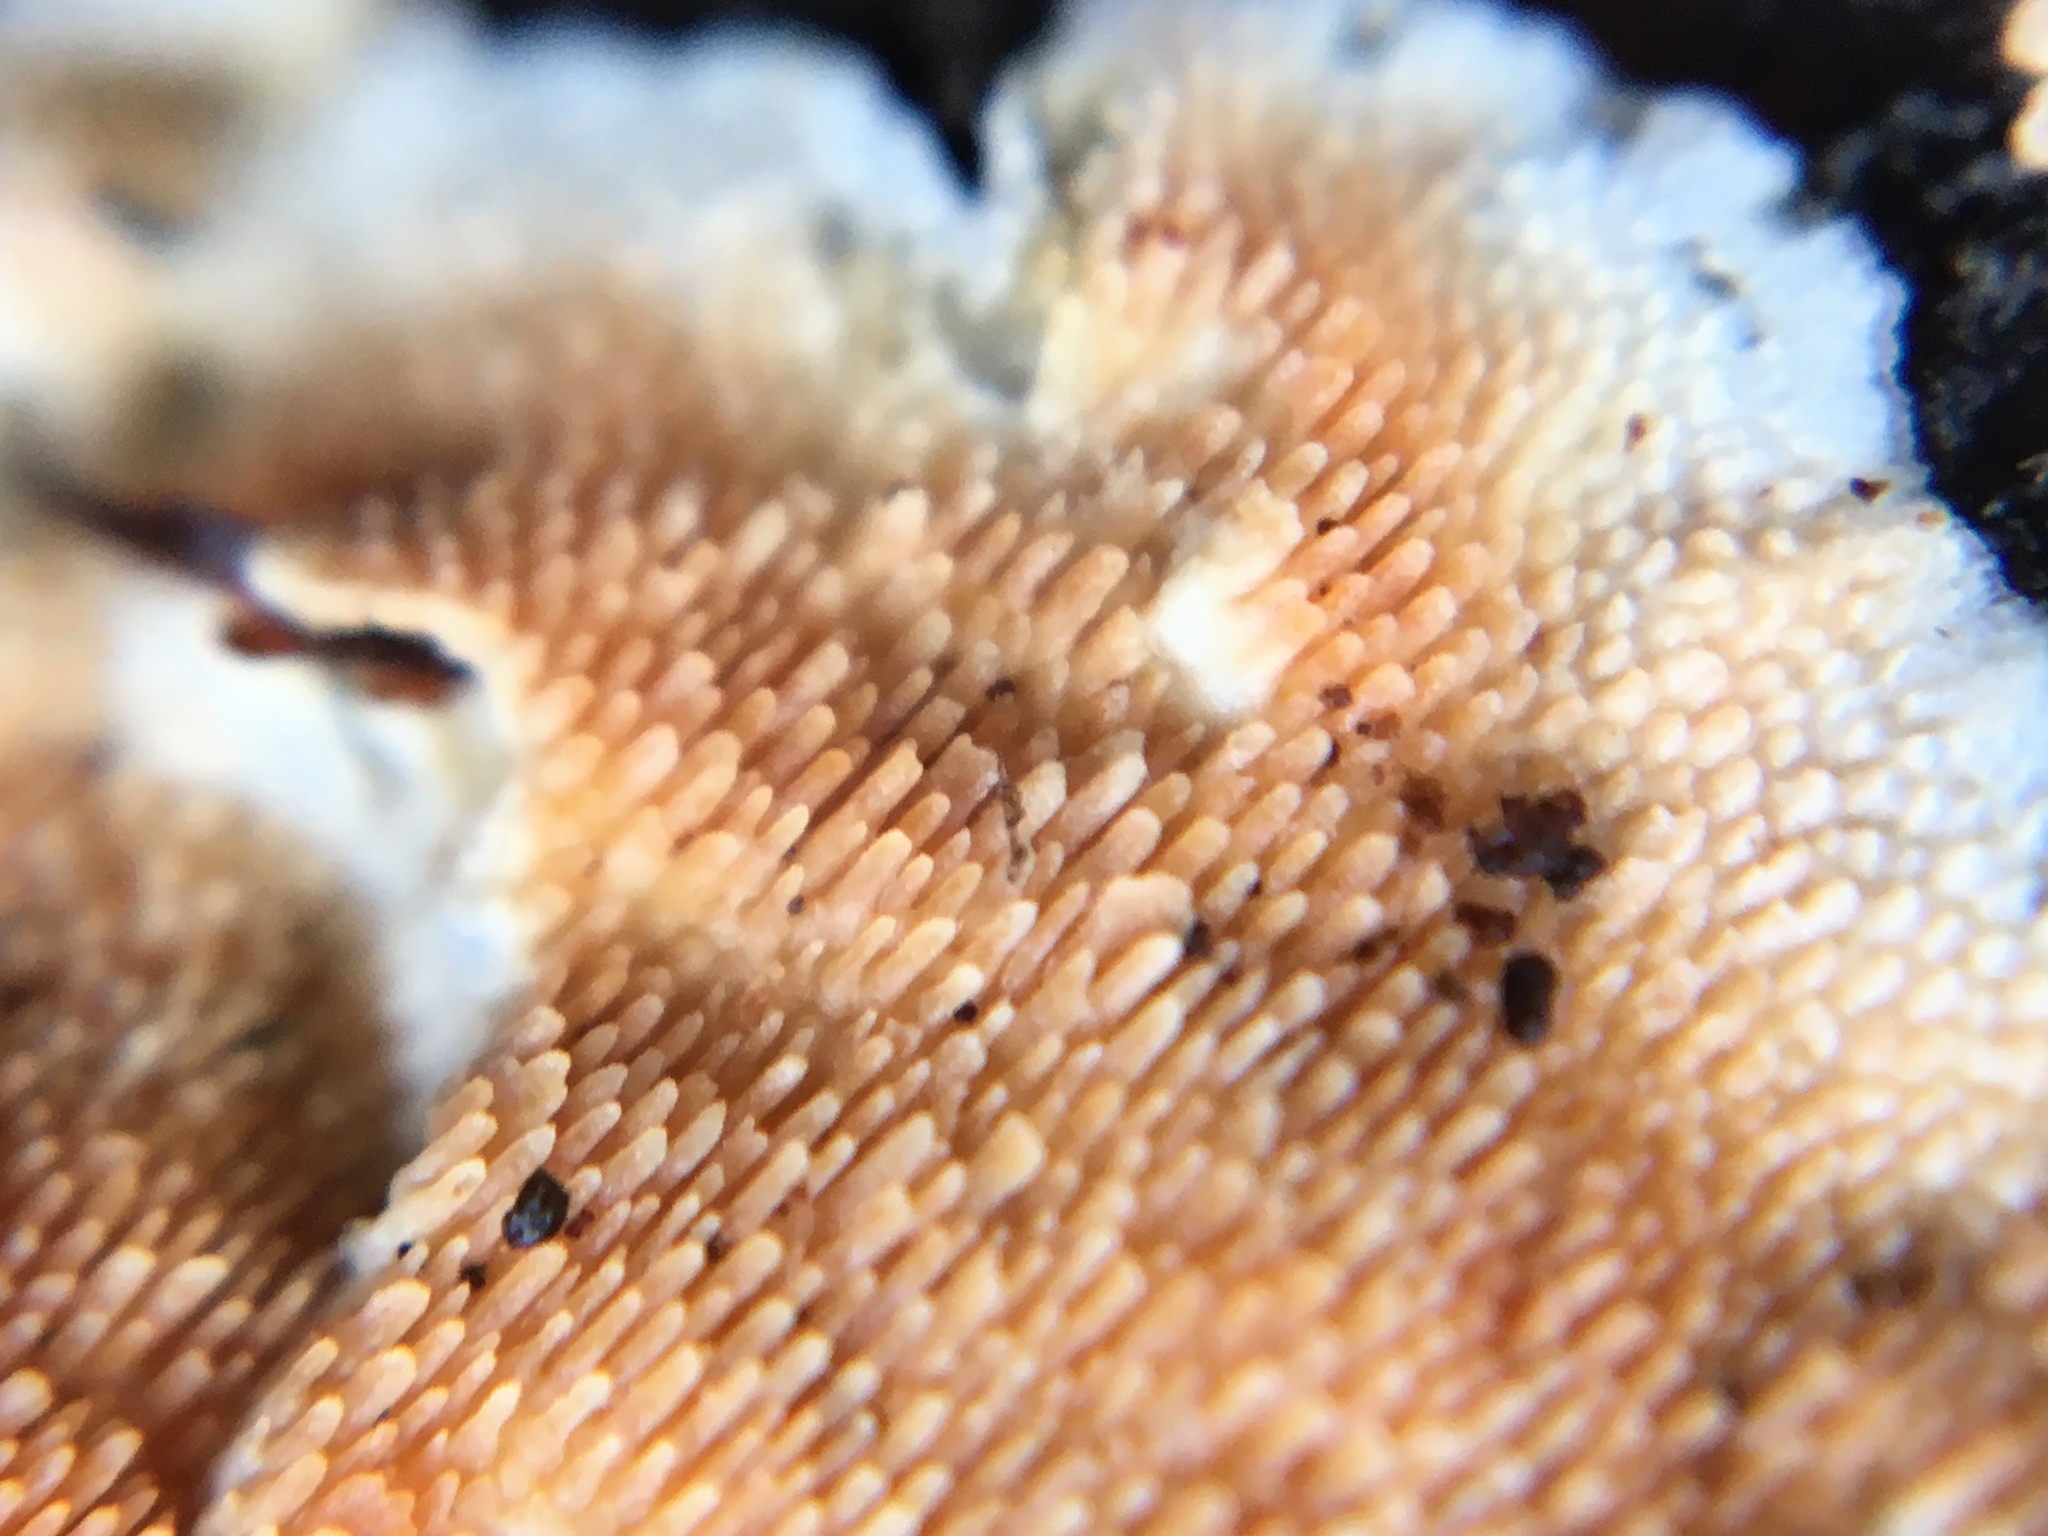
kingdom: Fungi
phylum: Basidiomycota
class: Agaricomycetes
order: Polyporales
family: Steccherinaceae
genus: Steccherinum
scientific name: Steccherinum ochraceum
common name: Ochre spreading tooth
